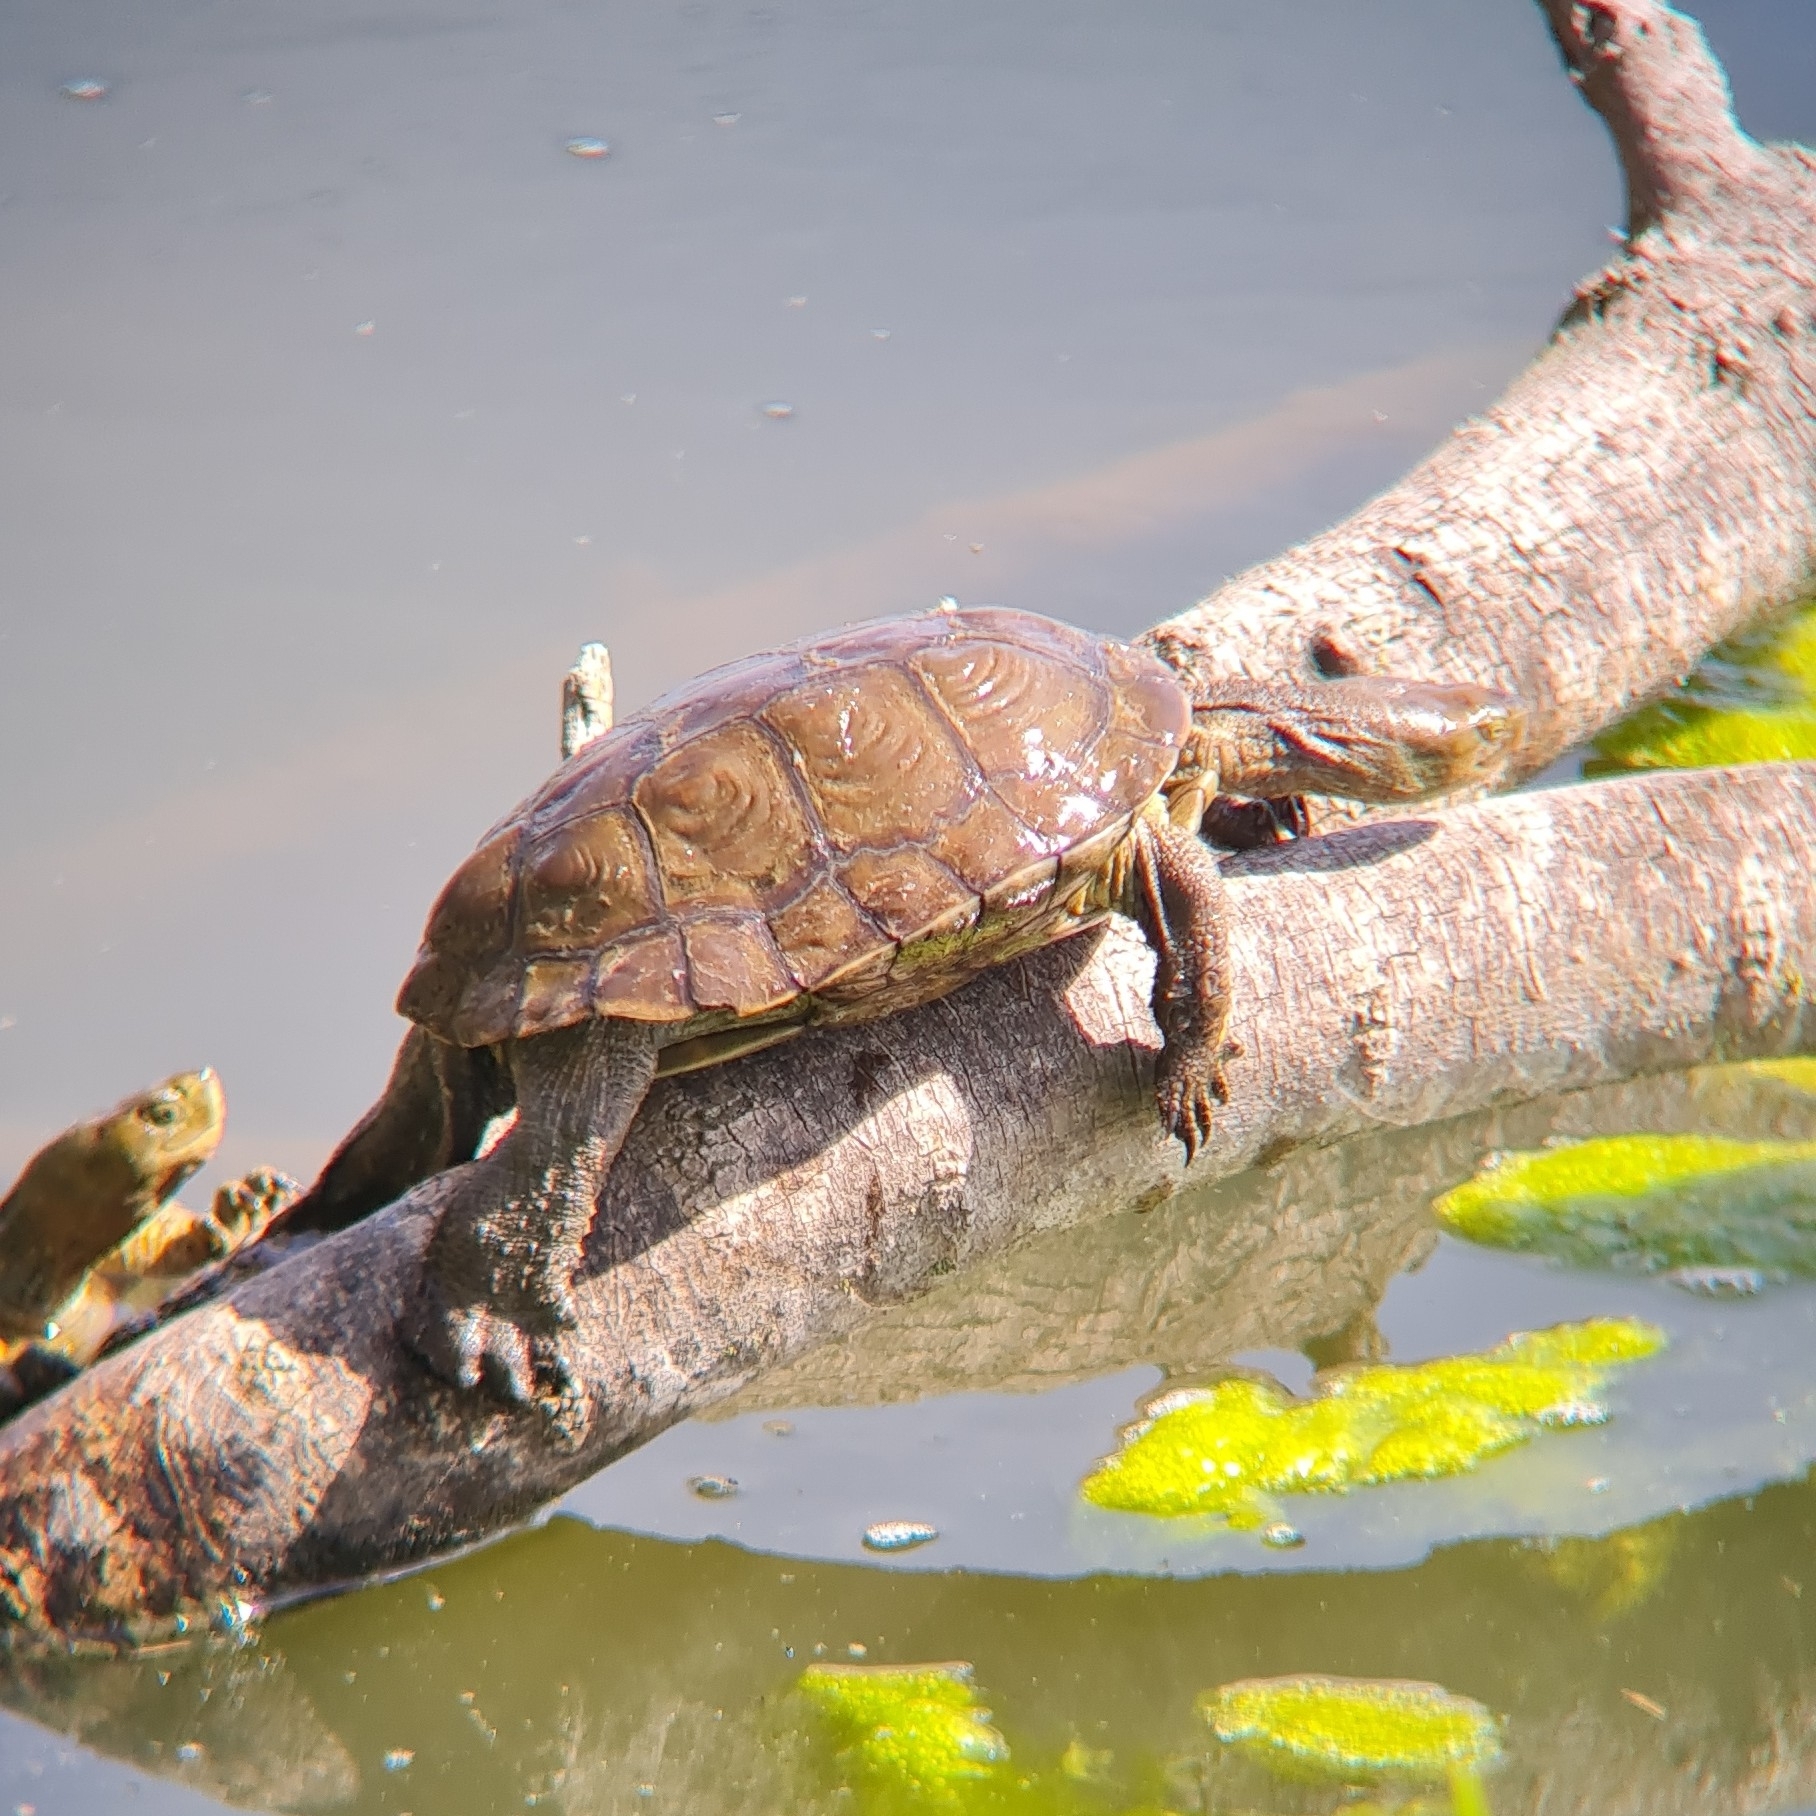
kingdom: Animalia
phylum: Chordata
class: Testudines
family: Geoemydidae
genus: Mauremys
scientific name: Mauremys leprosa
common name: Mediterranean pond turtle
